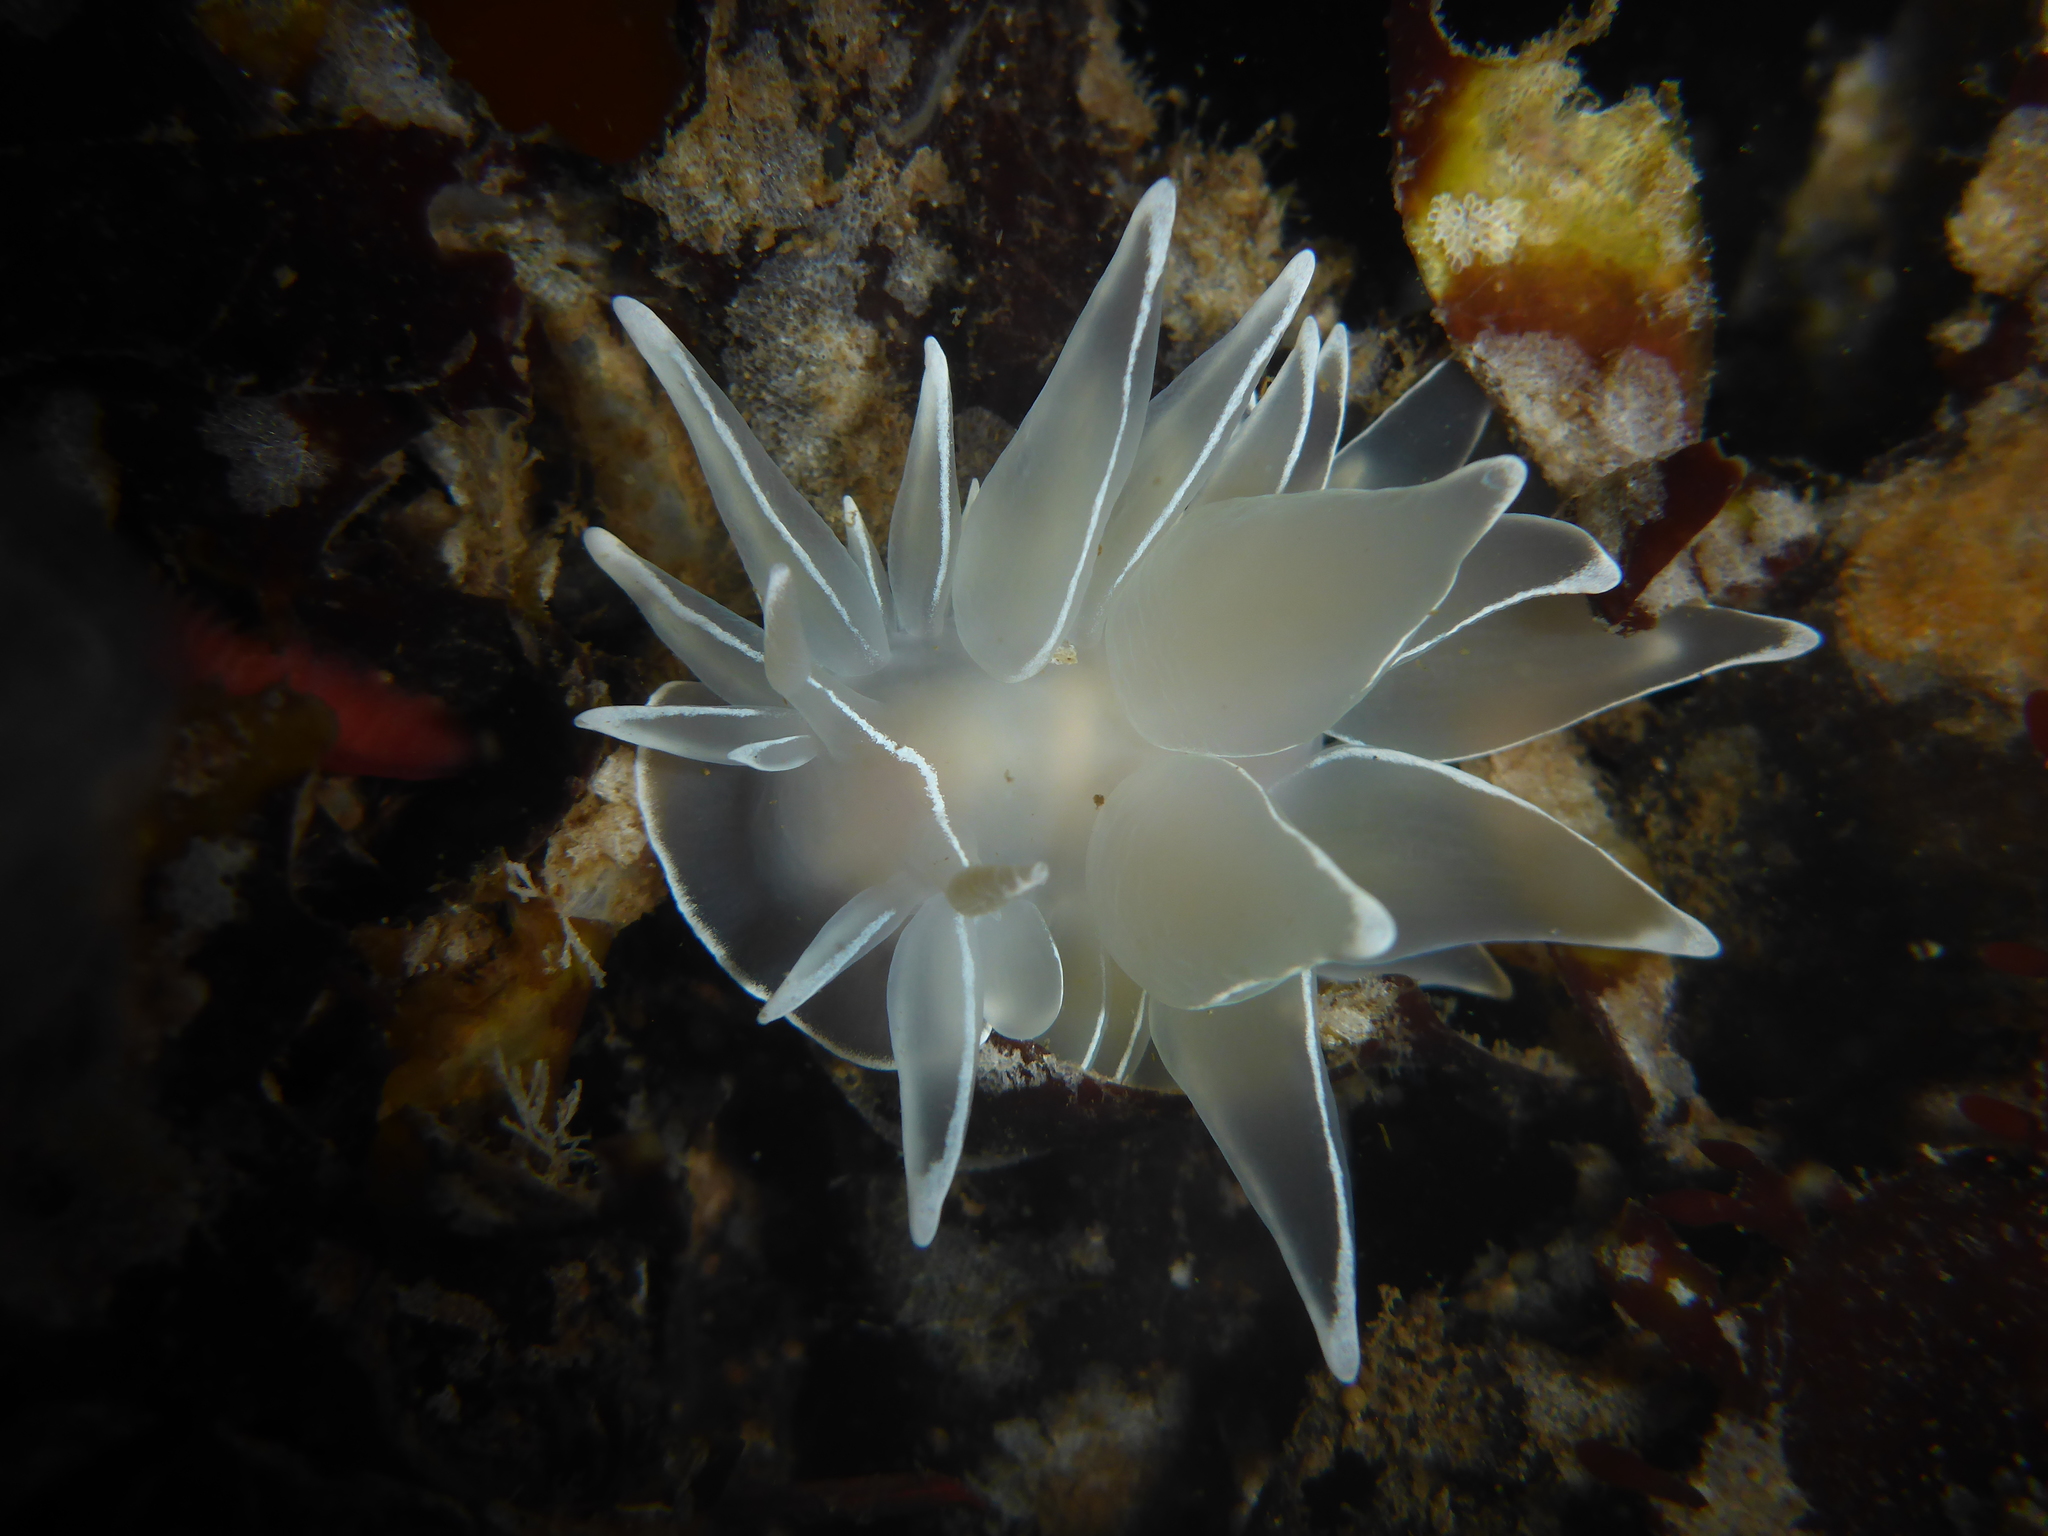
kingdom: Animalia
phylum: Mollusca
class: Gastropoda
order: Nudibranchia
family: Dironidae
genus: Dirona
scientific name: Dirona albolineata
